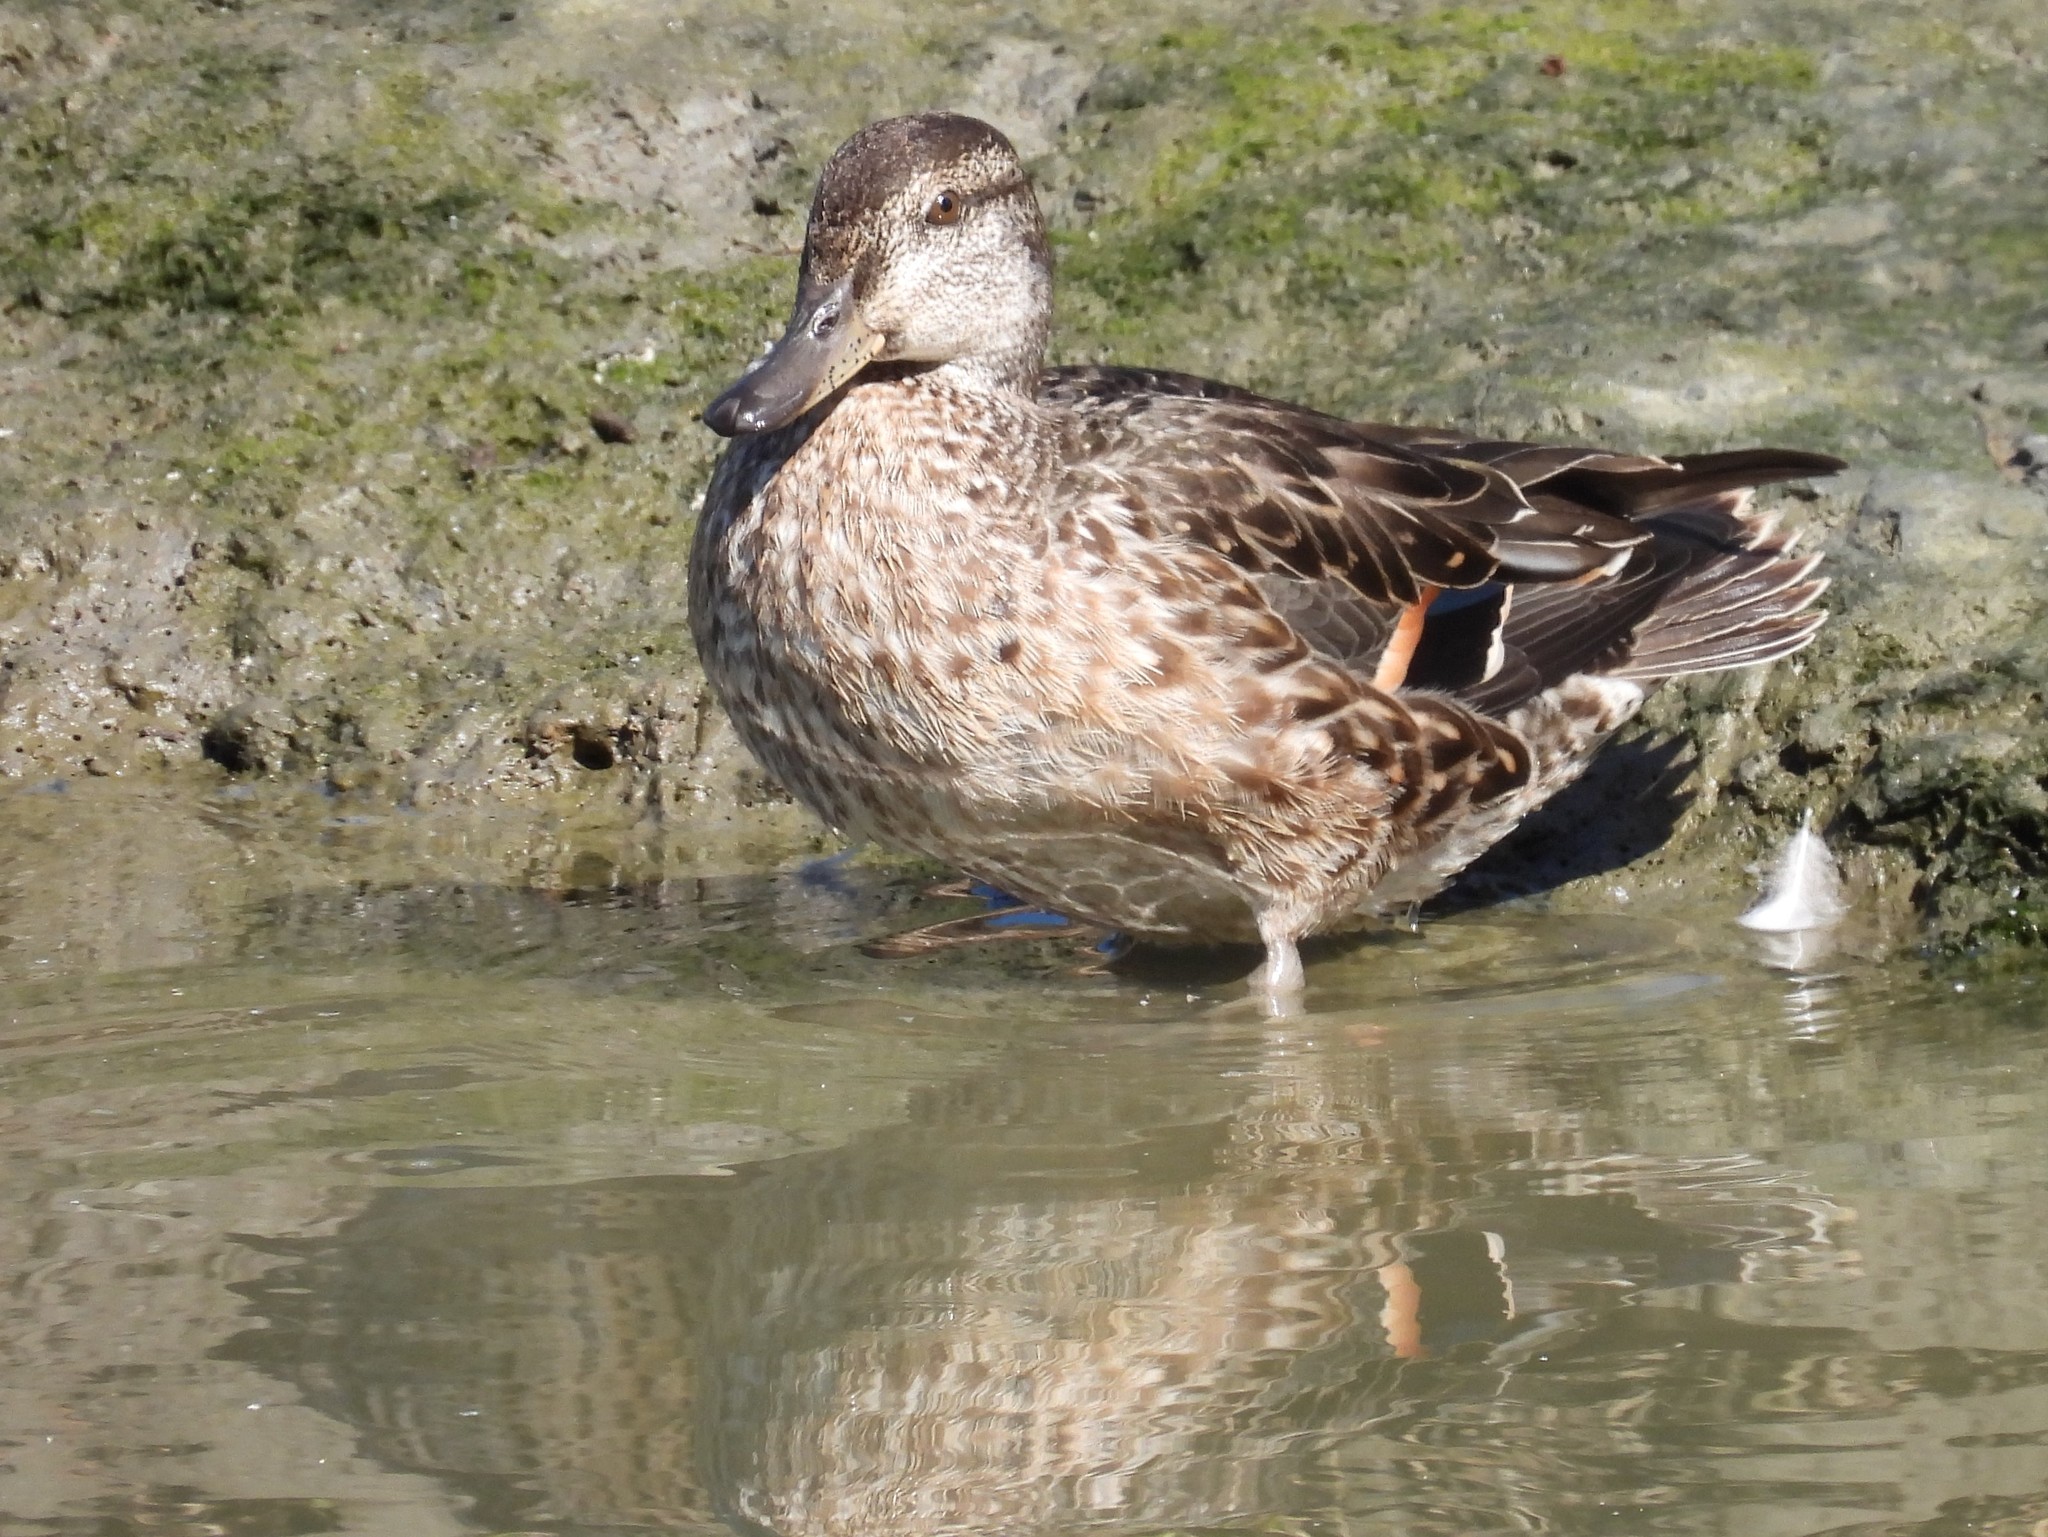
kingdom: Animalia
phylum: Chordata
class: Aves
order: Anseriformes
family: Anatidae
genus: Anas
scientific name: Anas crecca
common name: Eurasian teal
